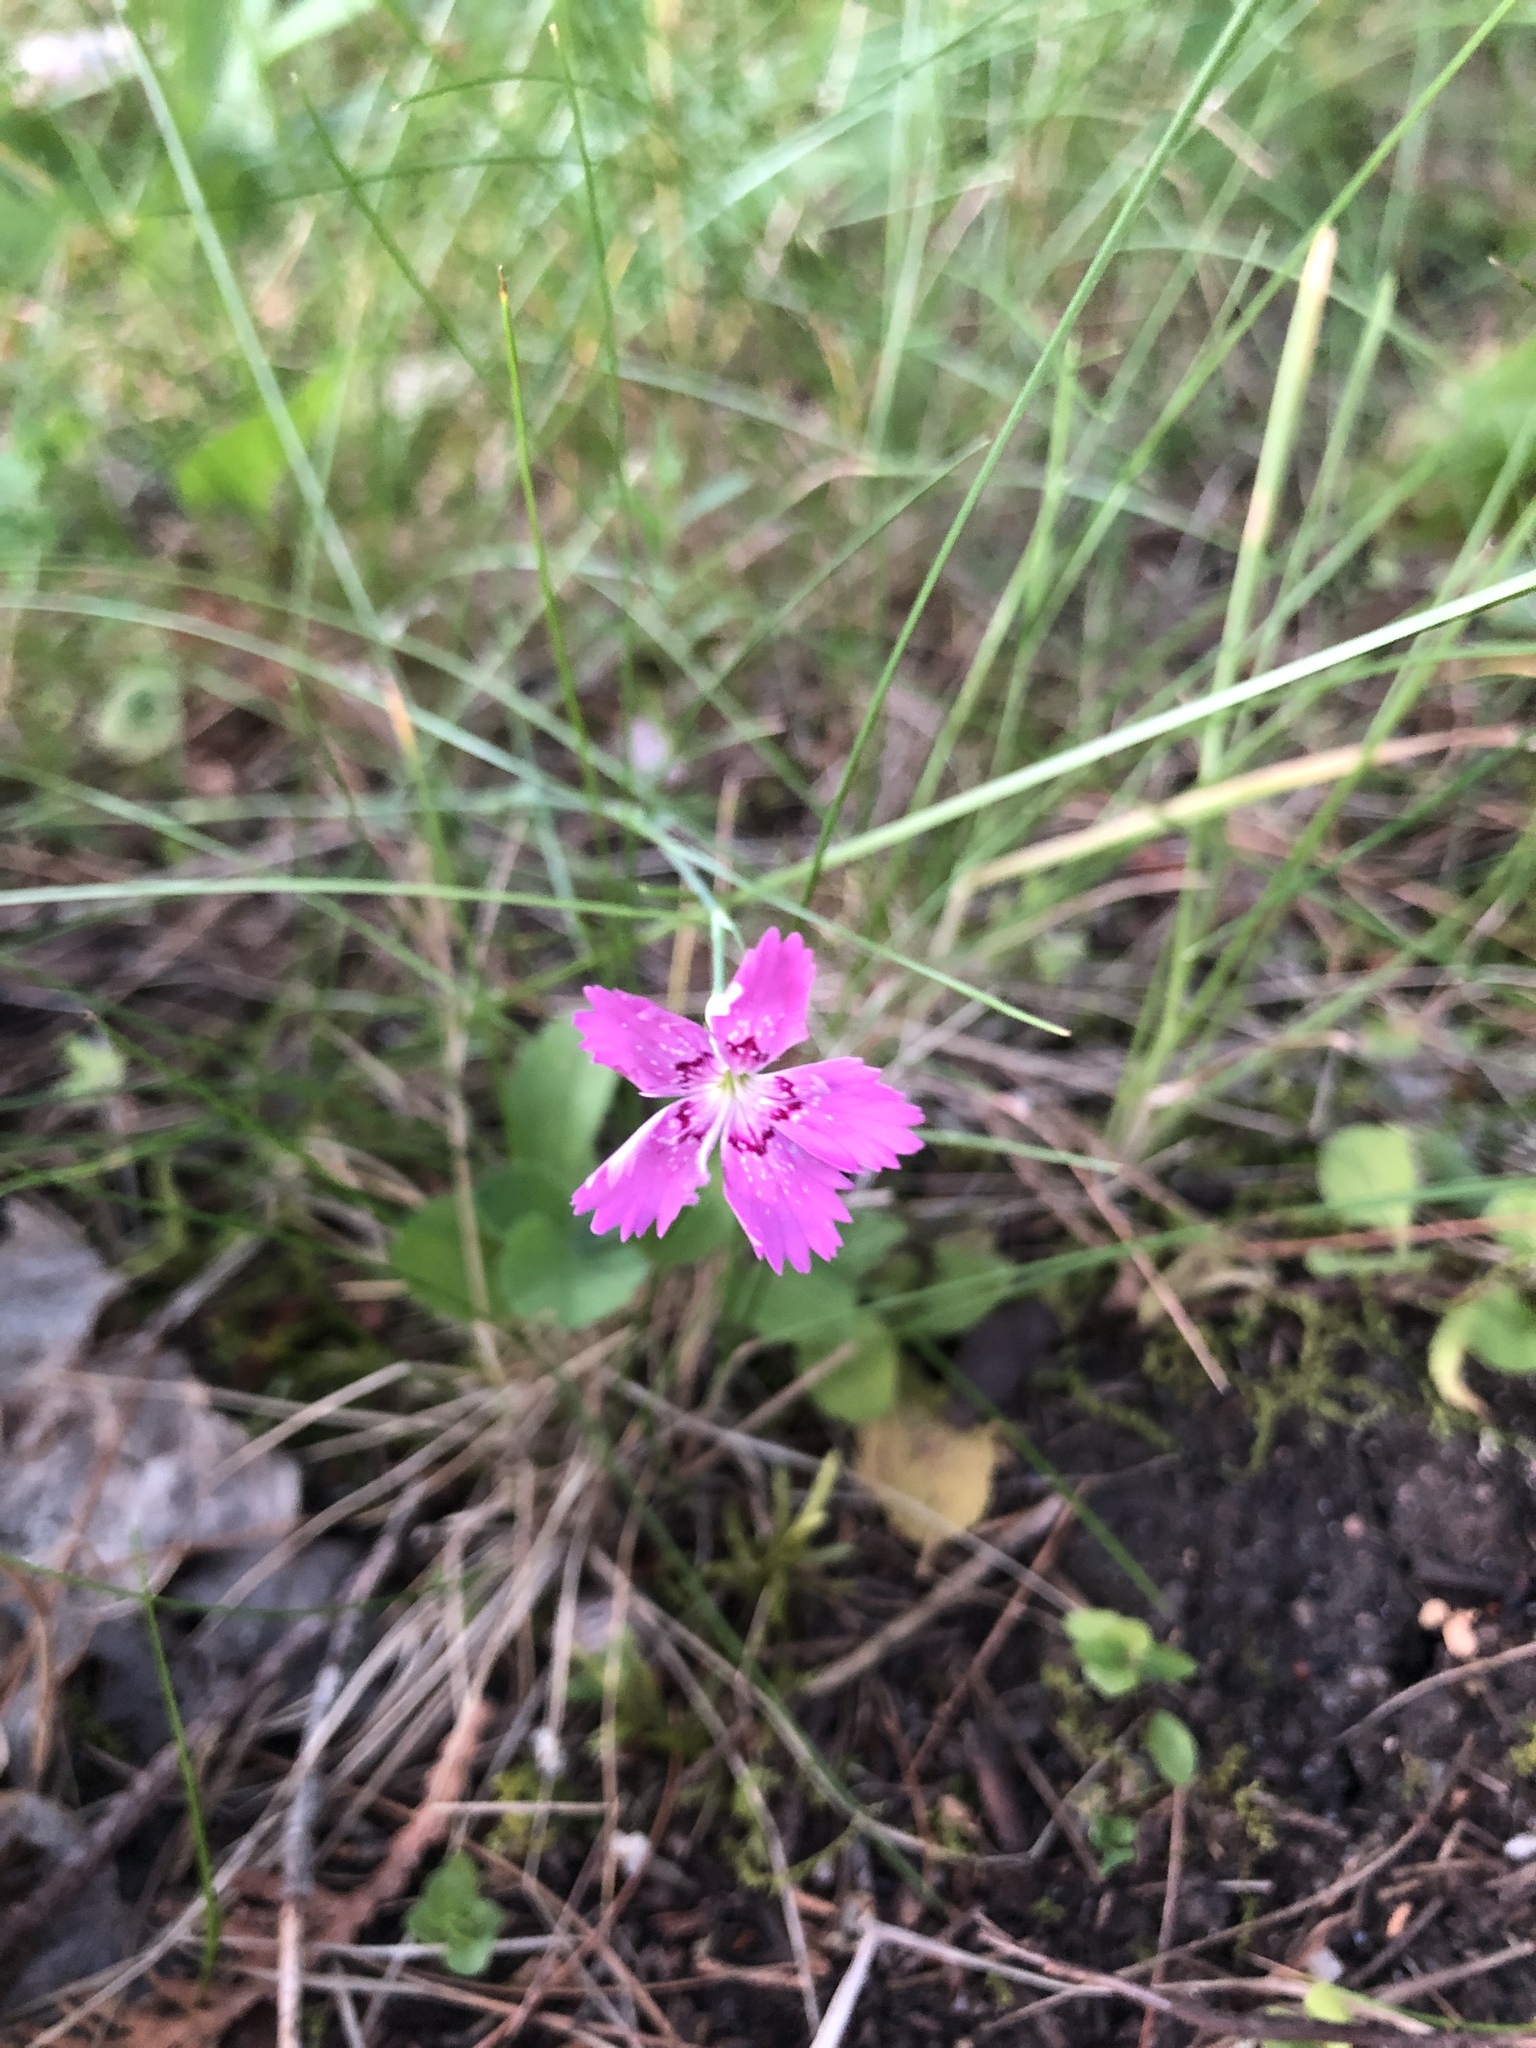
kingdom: Plantae
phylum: Tracheophyta
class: Magnoliopsida
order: Caryophyllales
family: Caryophyllaceae
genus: Dianthus
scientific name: Dianthus deltoides
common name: Maiden pink
